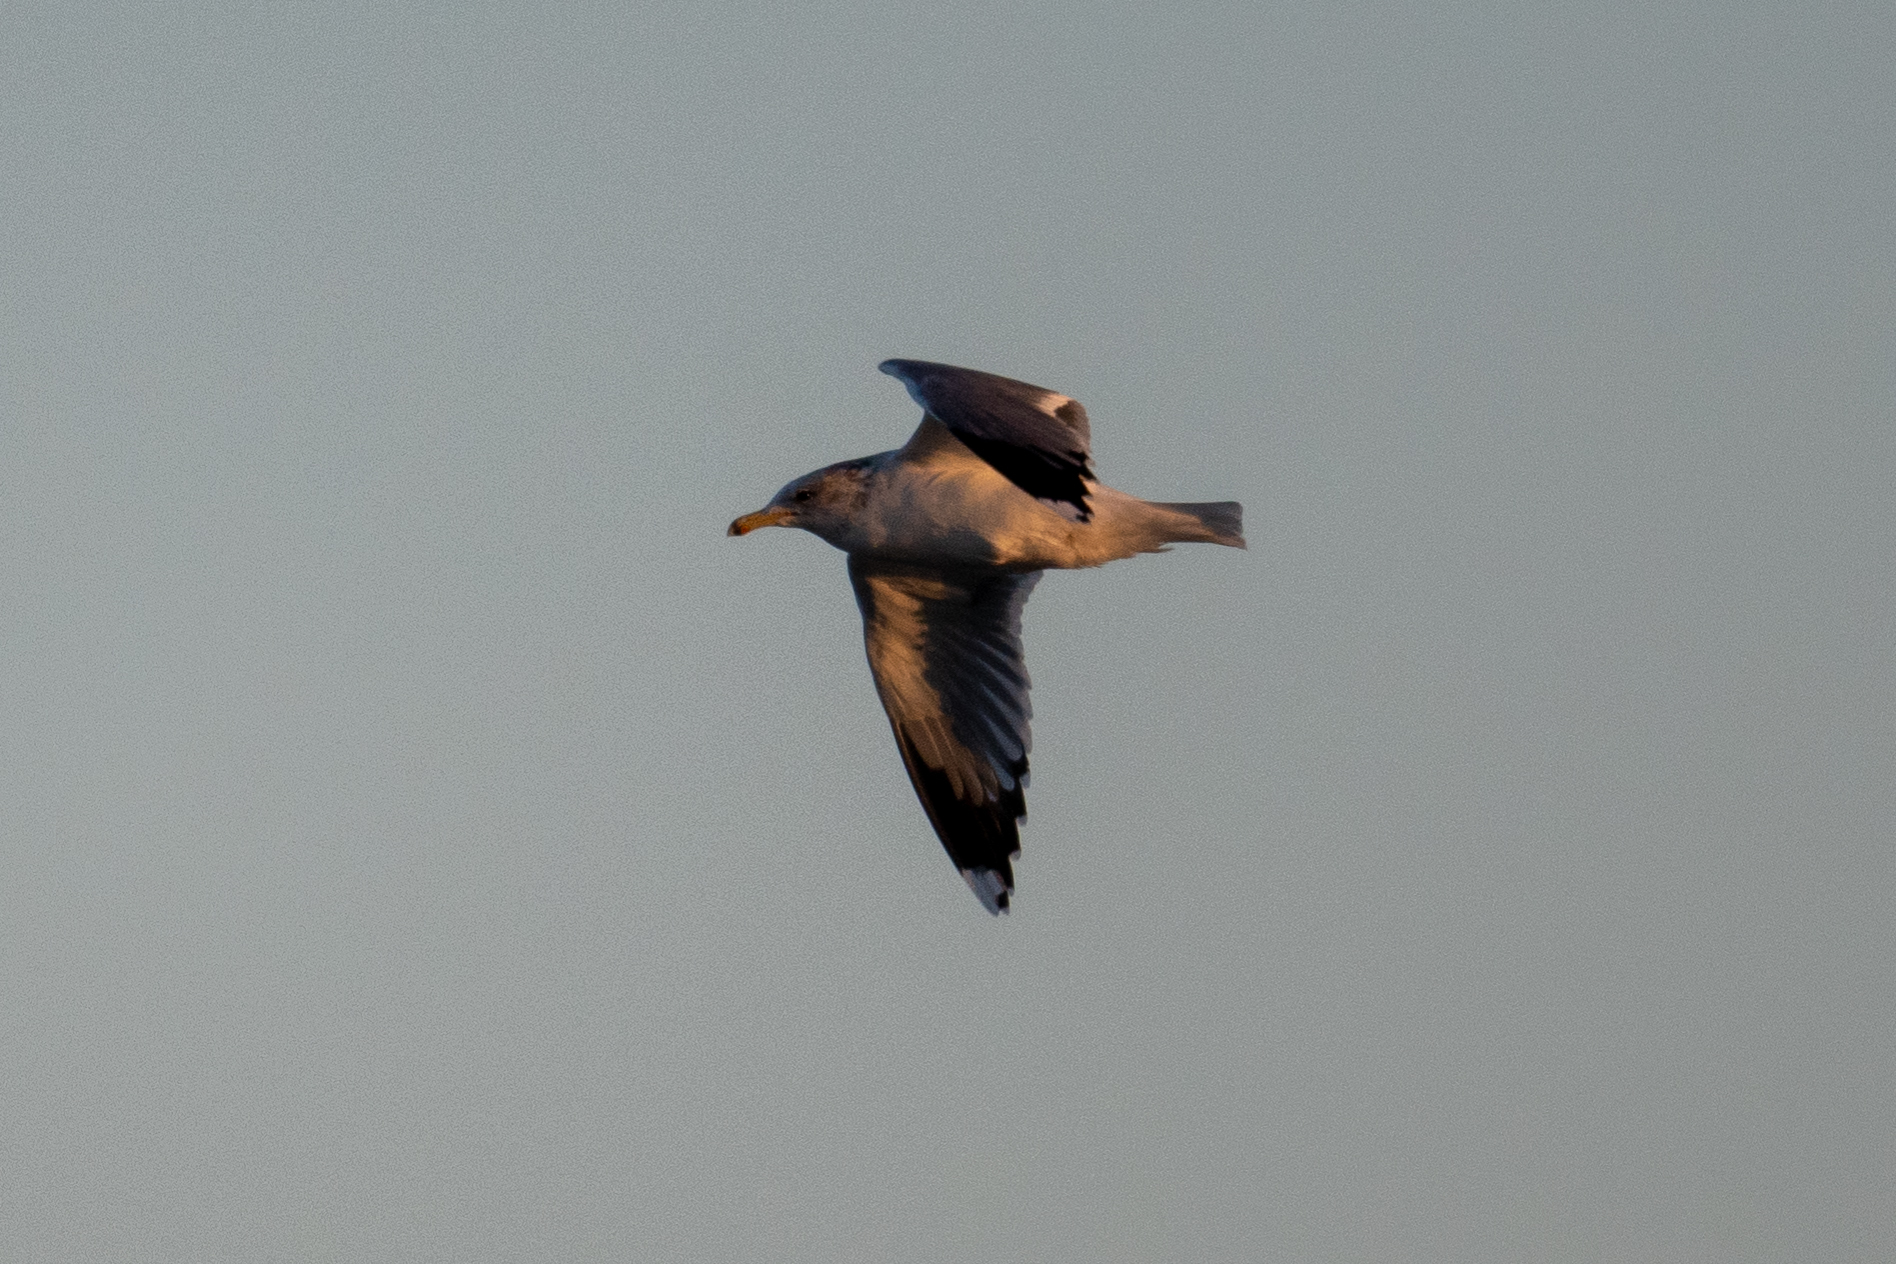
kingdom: Animalia
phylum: Chordata
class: Aves
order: Charadriiformes
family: Laridae
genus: Larus
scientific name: Larus californicus
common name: California gull
